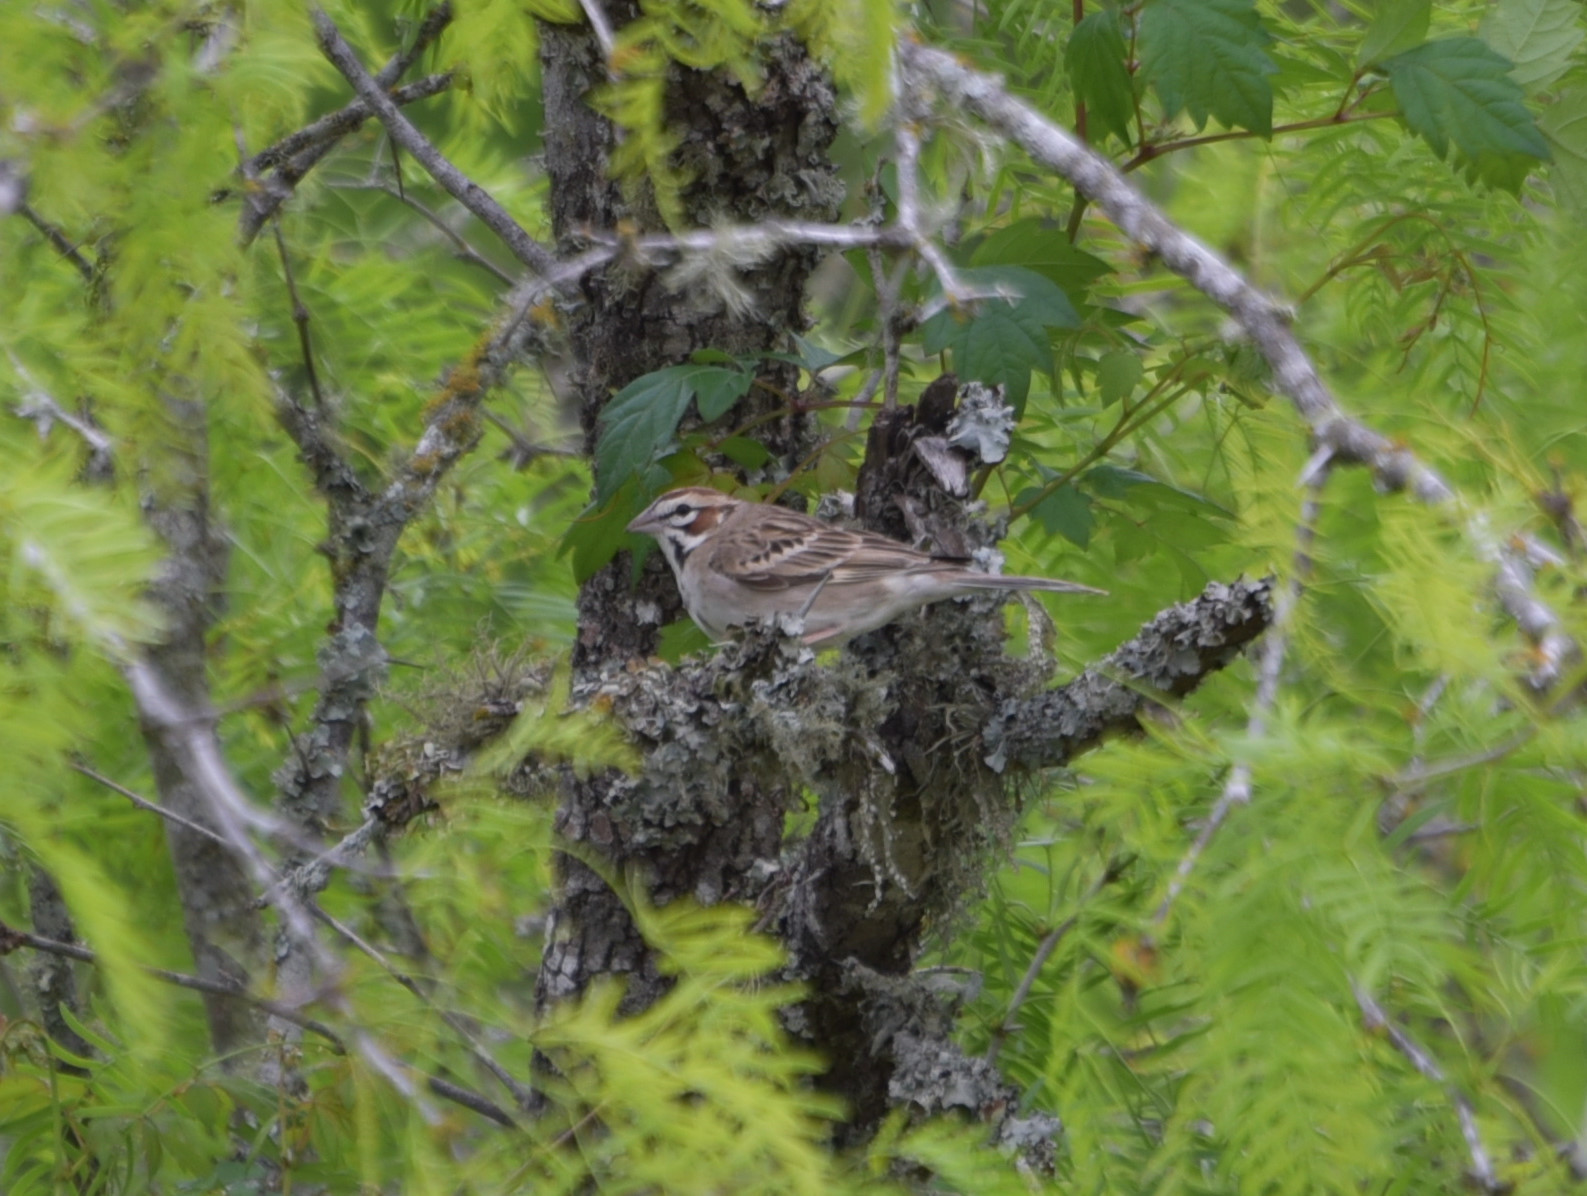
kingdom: Animalia
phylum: Chordata
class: Aves
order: Passeriformes
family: Passerellidae
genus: Chondestes
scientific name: Chondestes grammacus
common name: Lark sparrow
